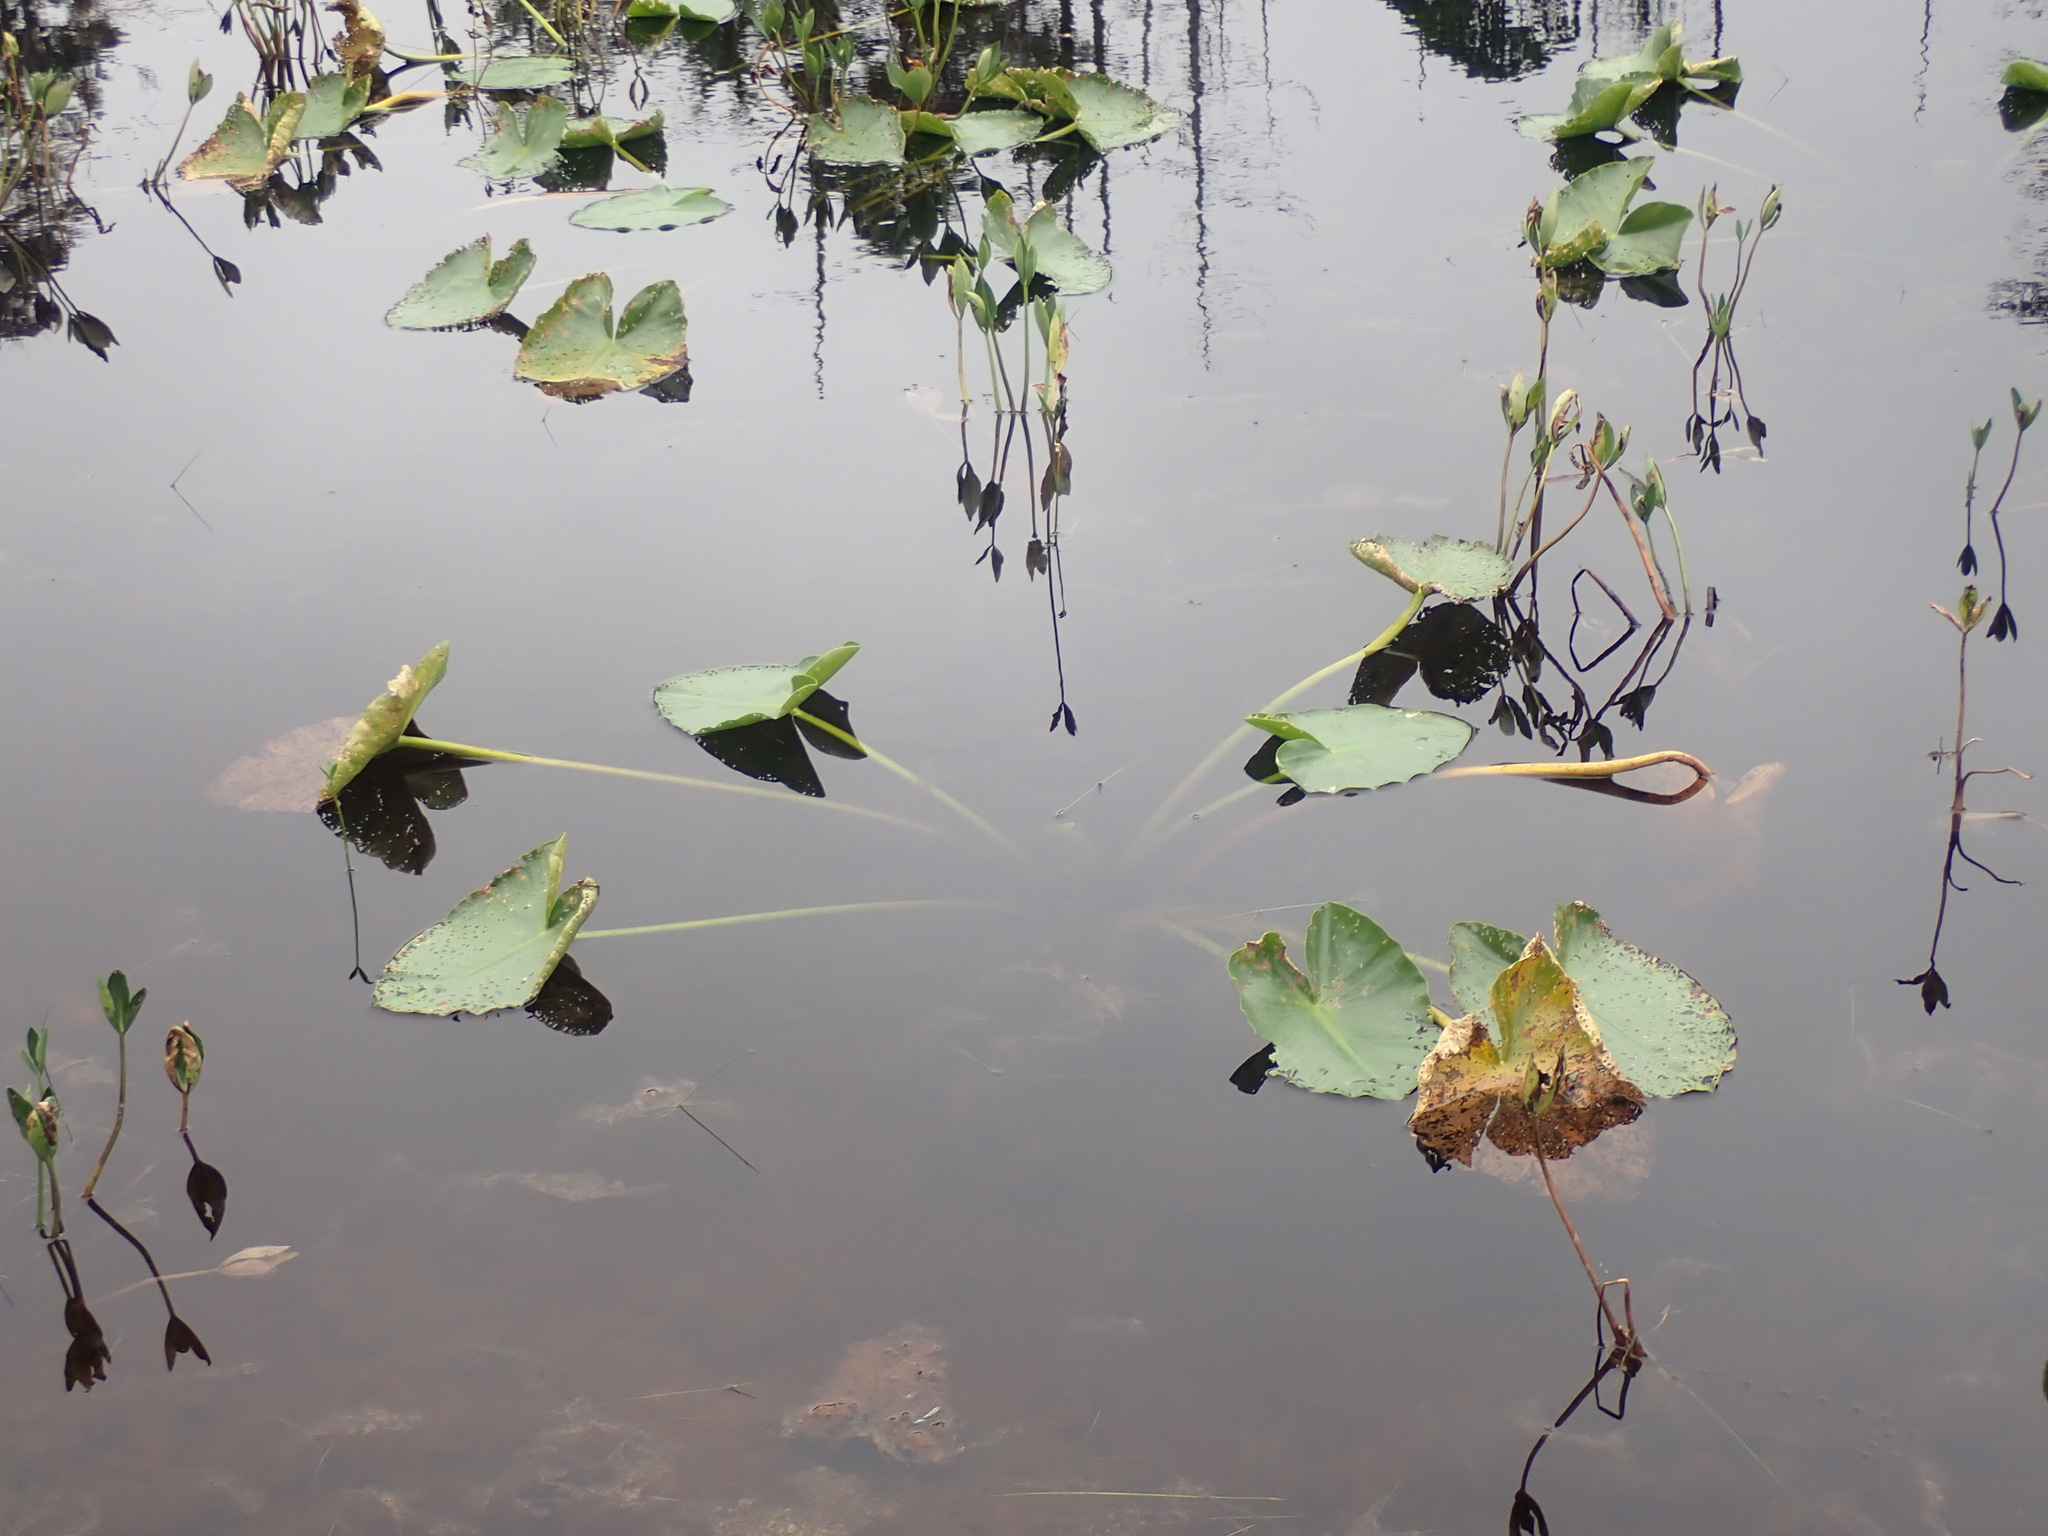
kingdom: Plantae
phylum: Tracheophyta
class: Magnoliopsida
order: Nymphaeales
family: Nymphaeaceae
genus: Nuphar
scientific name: Nuphar polysepala
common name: Rocky mountain cow-lily
